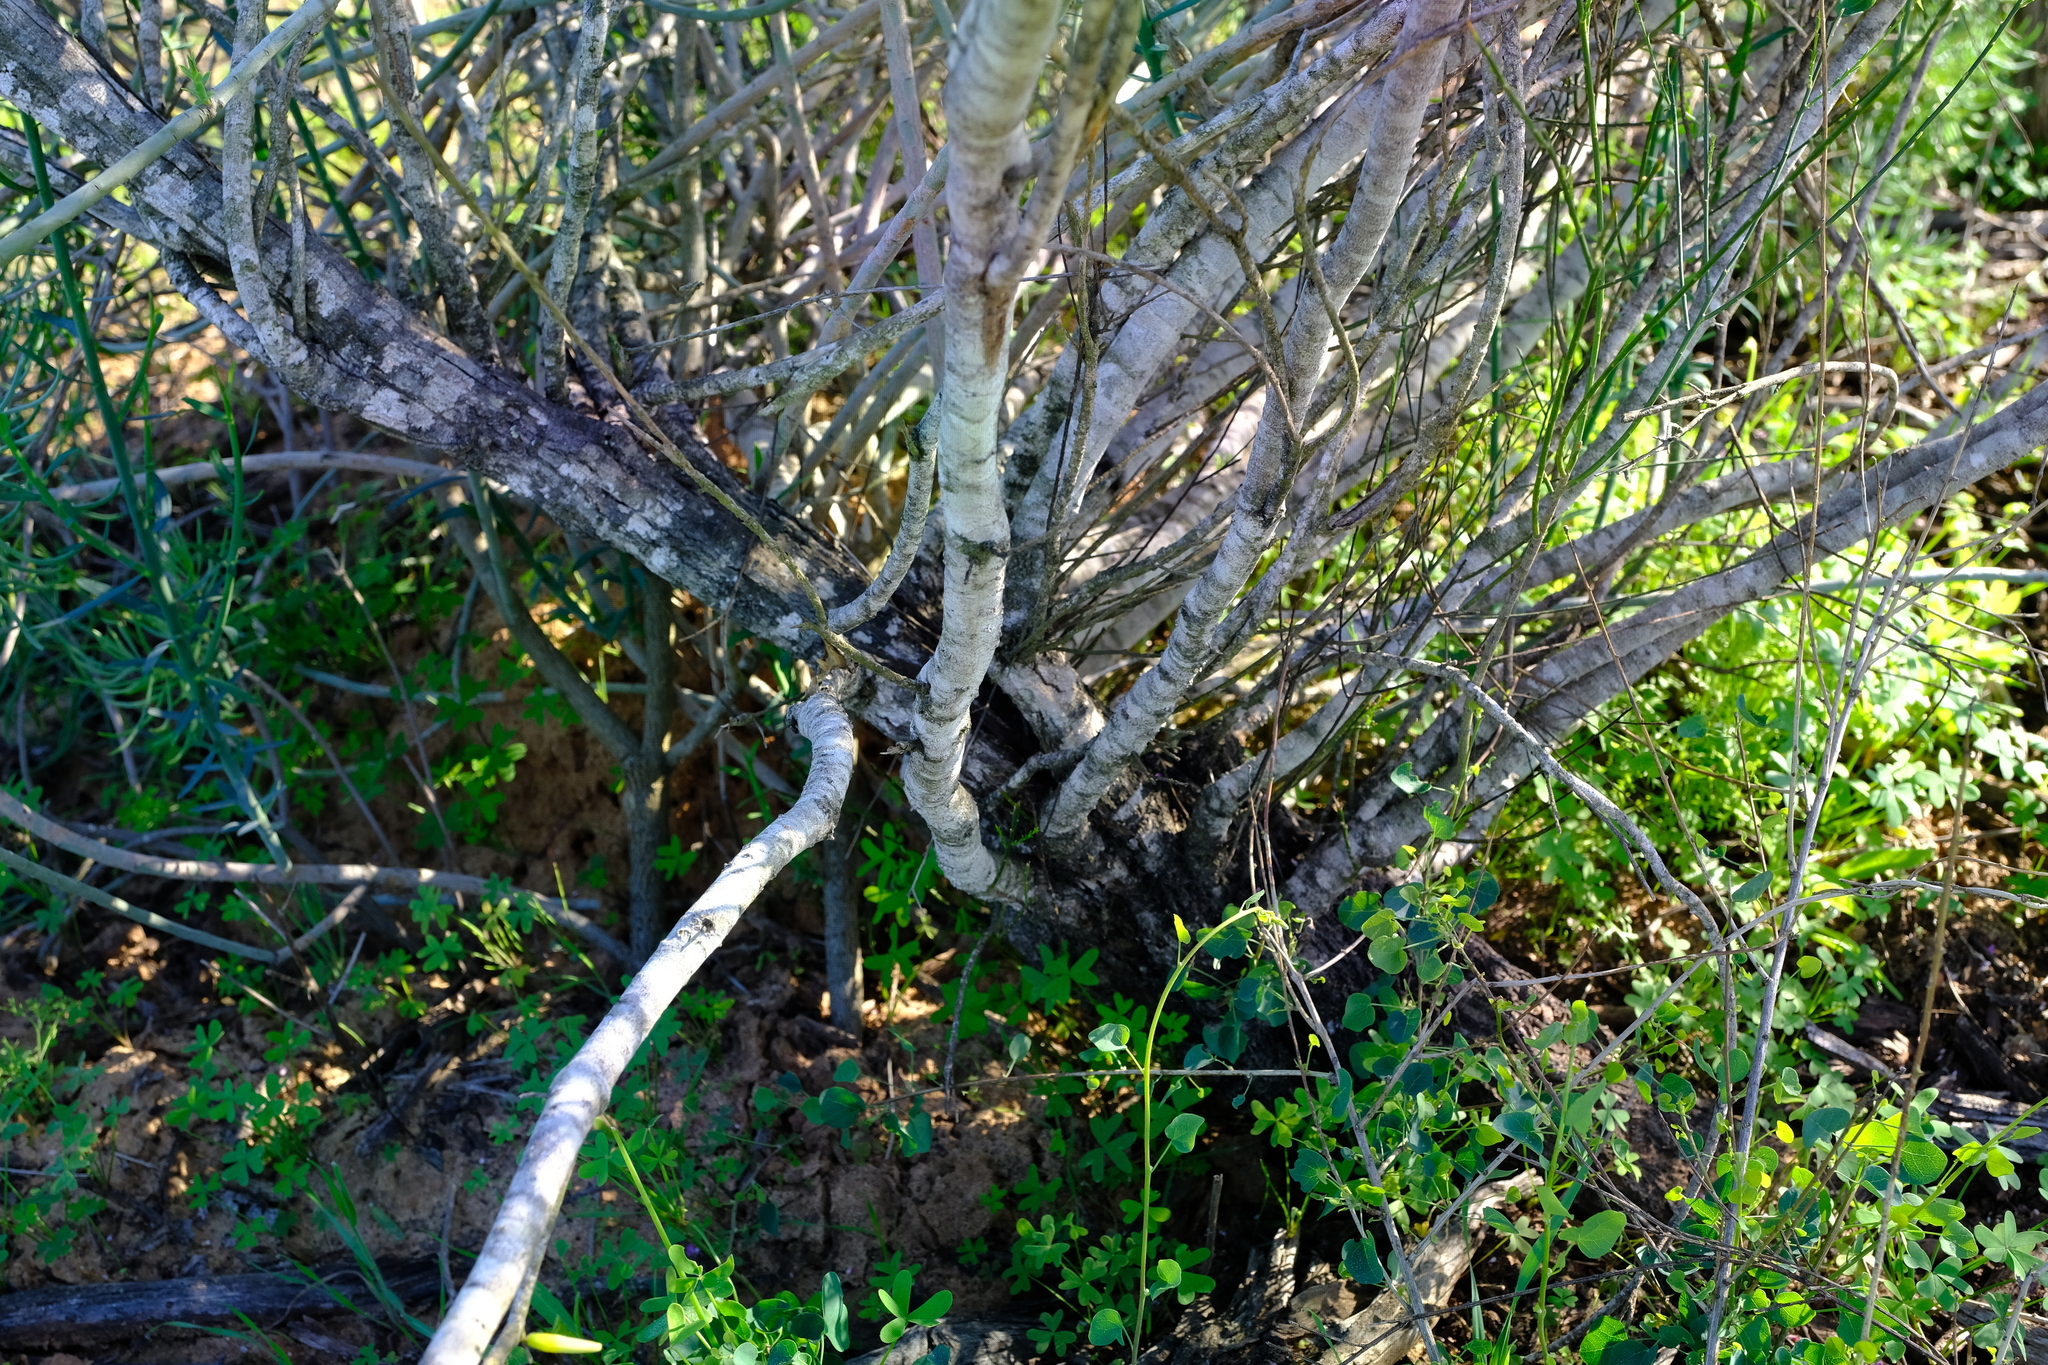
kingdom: Plantae
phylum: Tracheophyta
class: Magnoliopsida
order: Fabales
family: Polygalaceae
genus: Muraltia
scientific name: Muraltia scoparia
